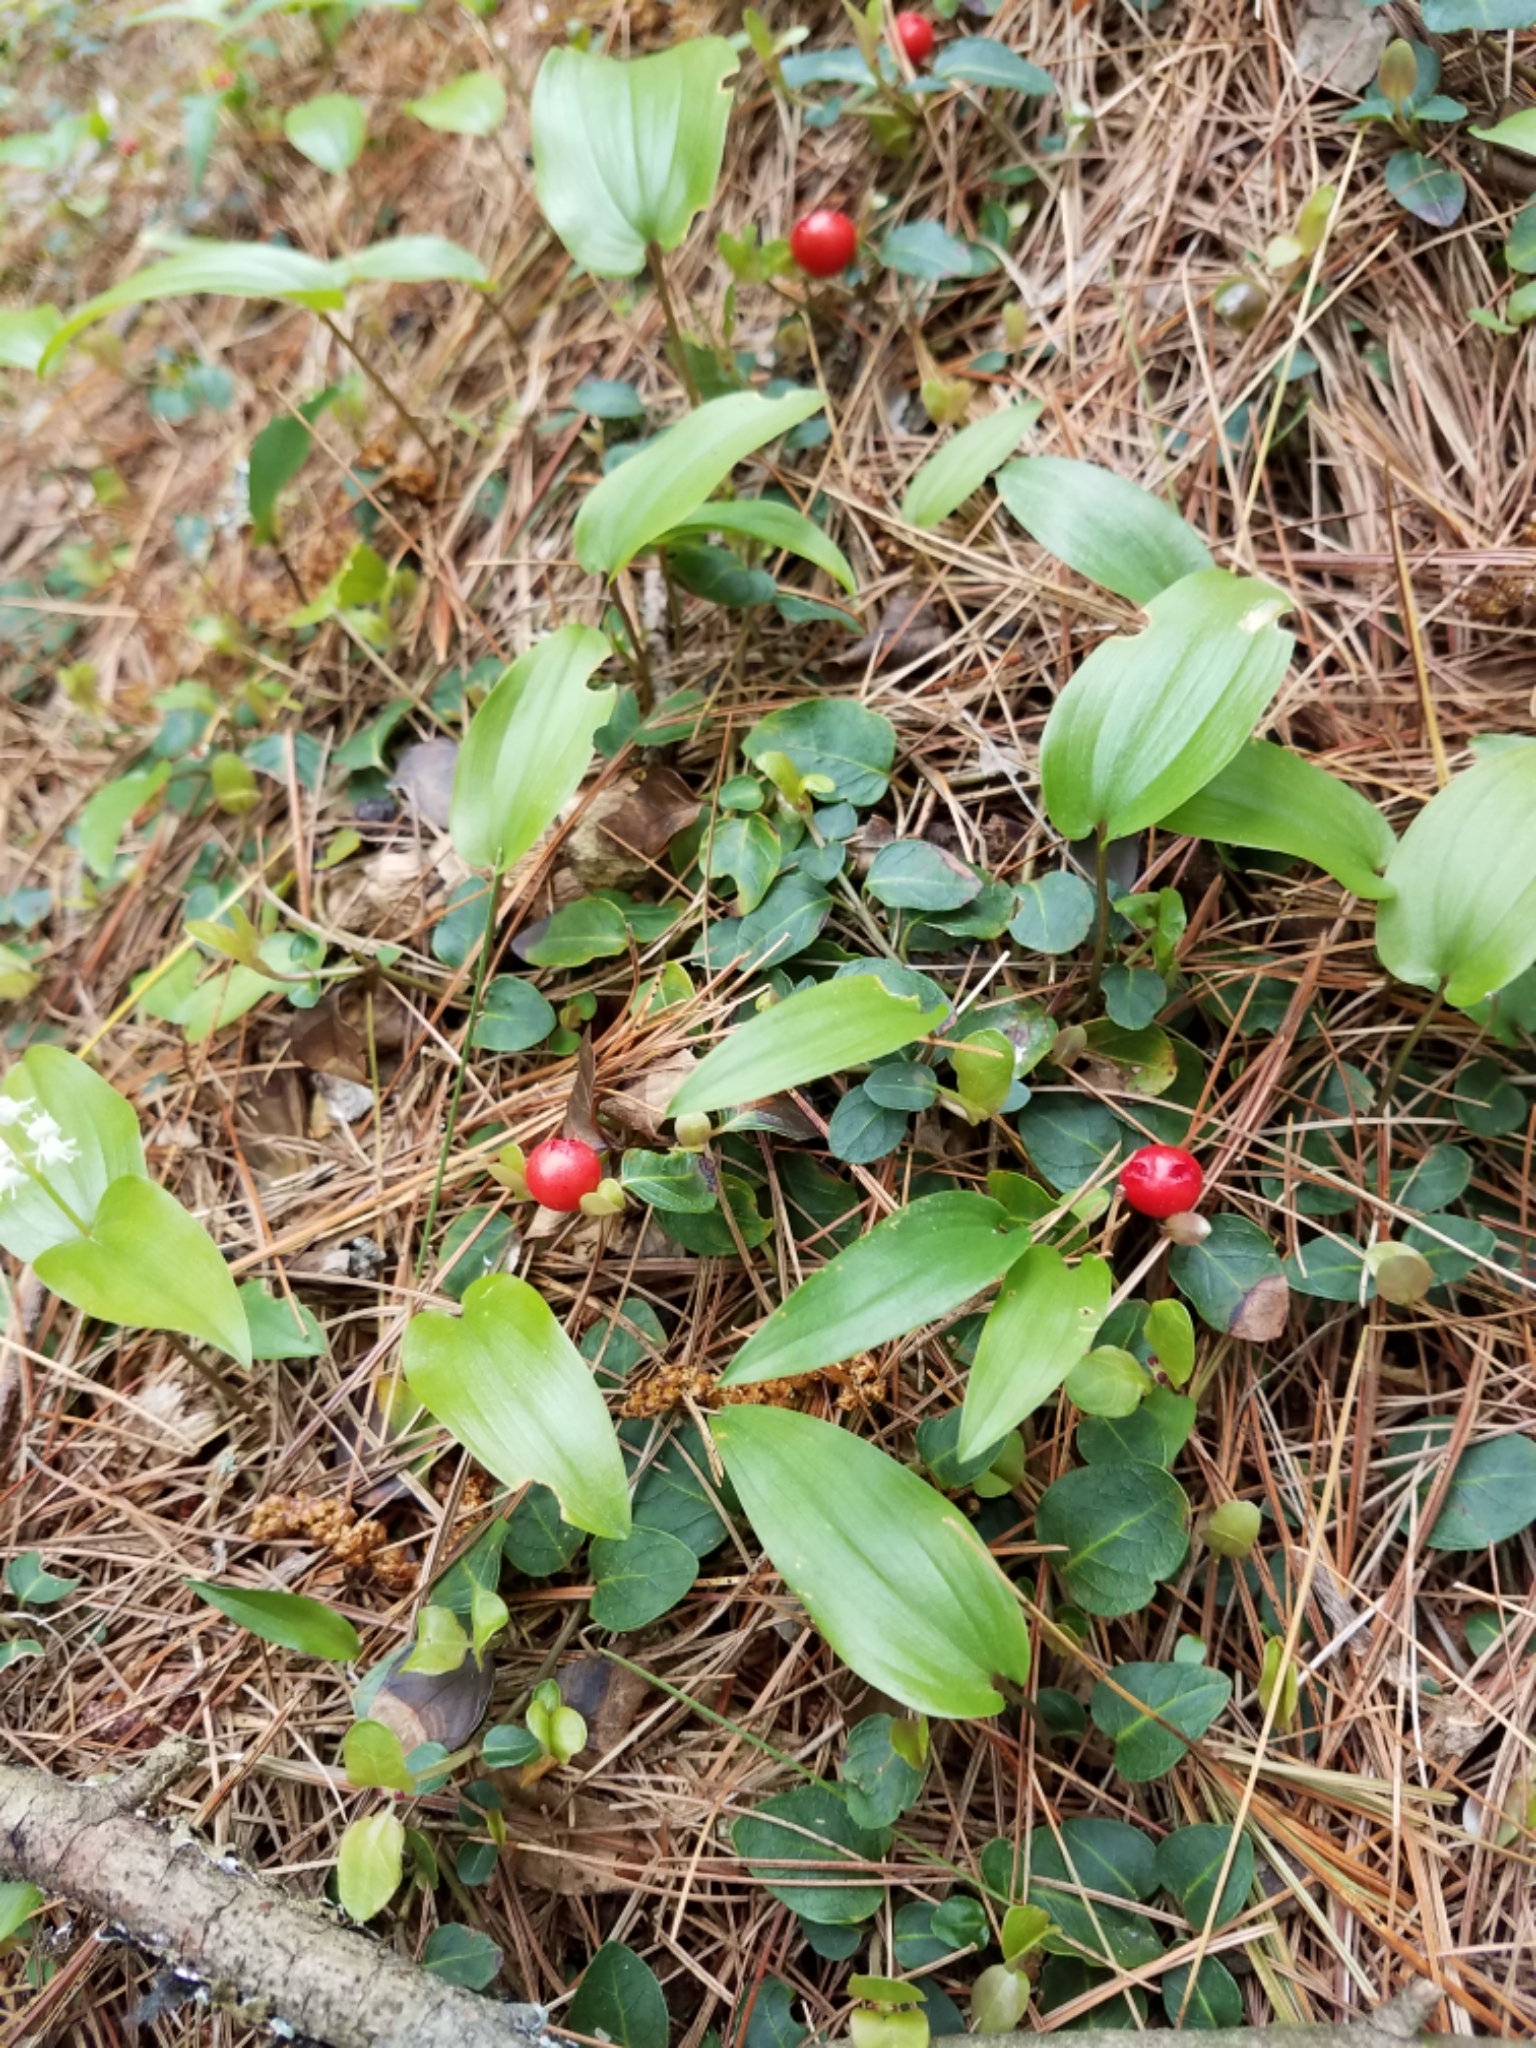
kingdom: Plantae
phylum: Tracheophyta
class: Magnoliopsida
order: Gentianales
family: Rubiaceae
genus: Mitchella
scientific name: Mitchella repens
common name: Partridge-berry
